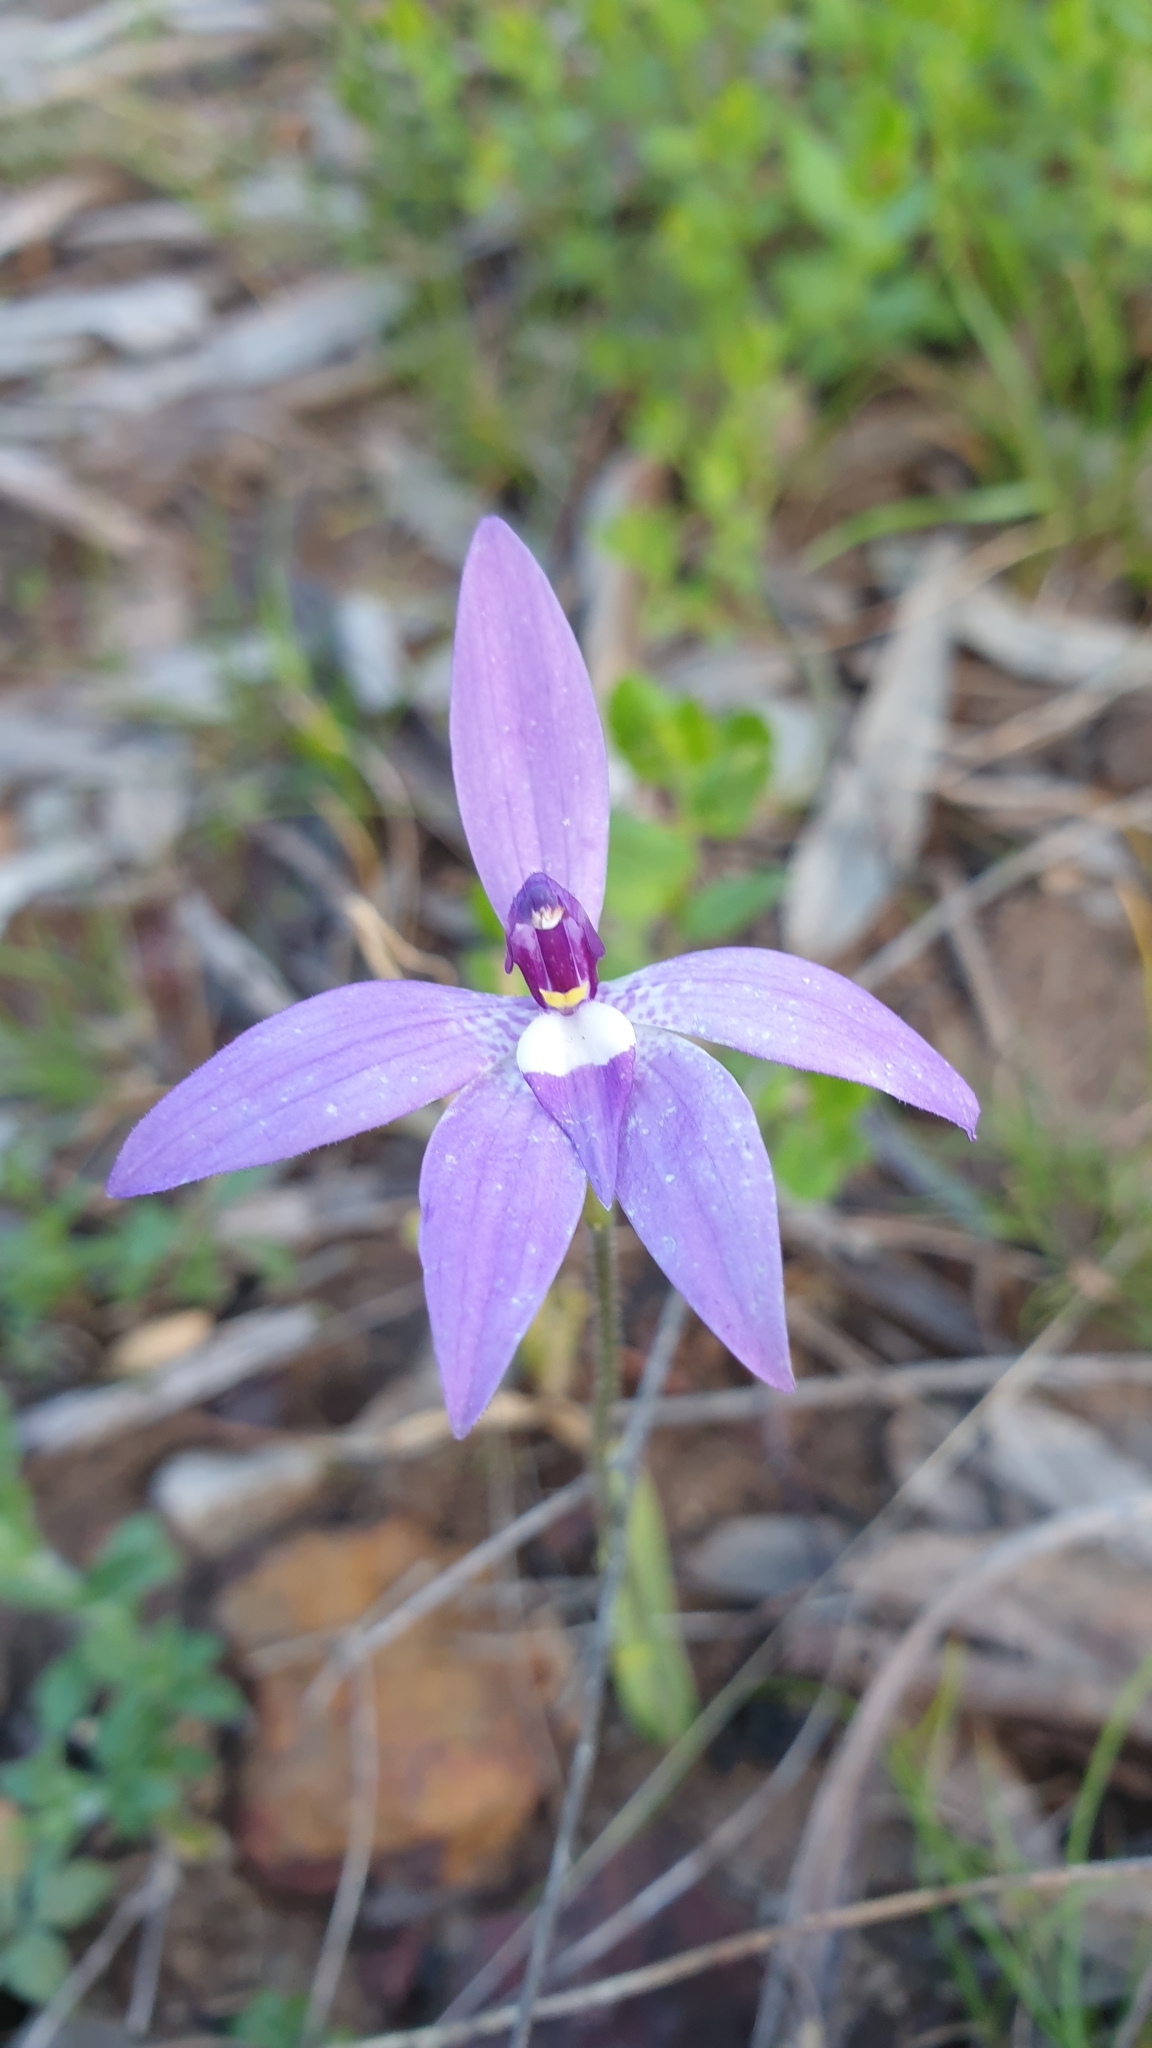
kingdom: Plantae
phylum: Tracheophyta
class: Liliopsida
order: Asparagales
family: Orchidaceae
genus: Caladenia
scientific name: Caladenia major
